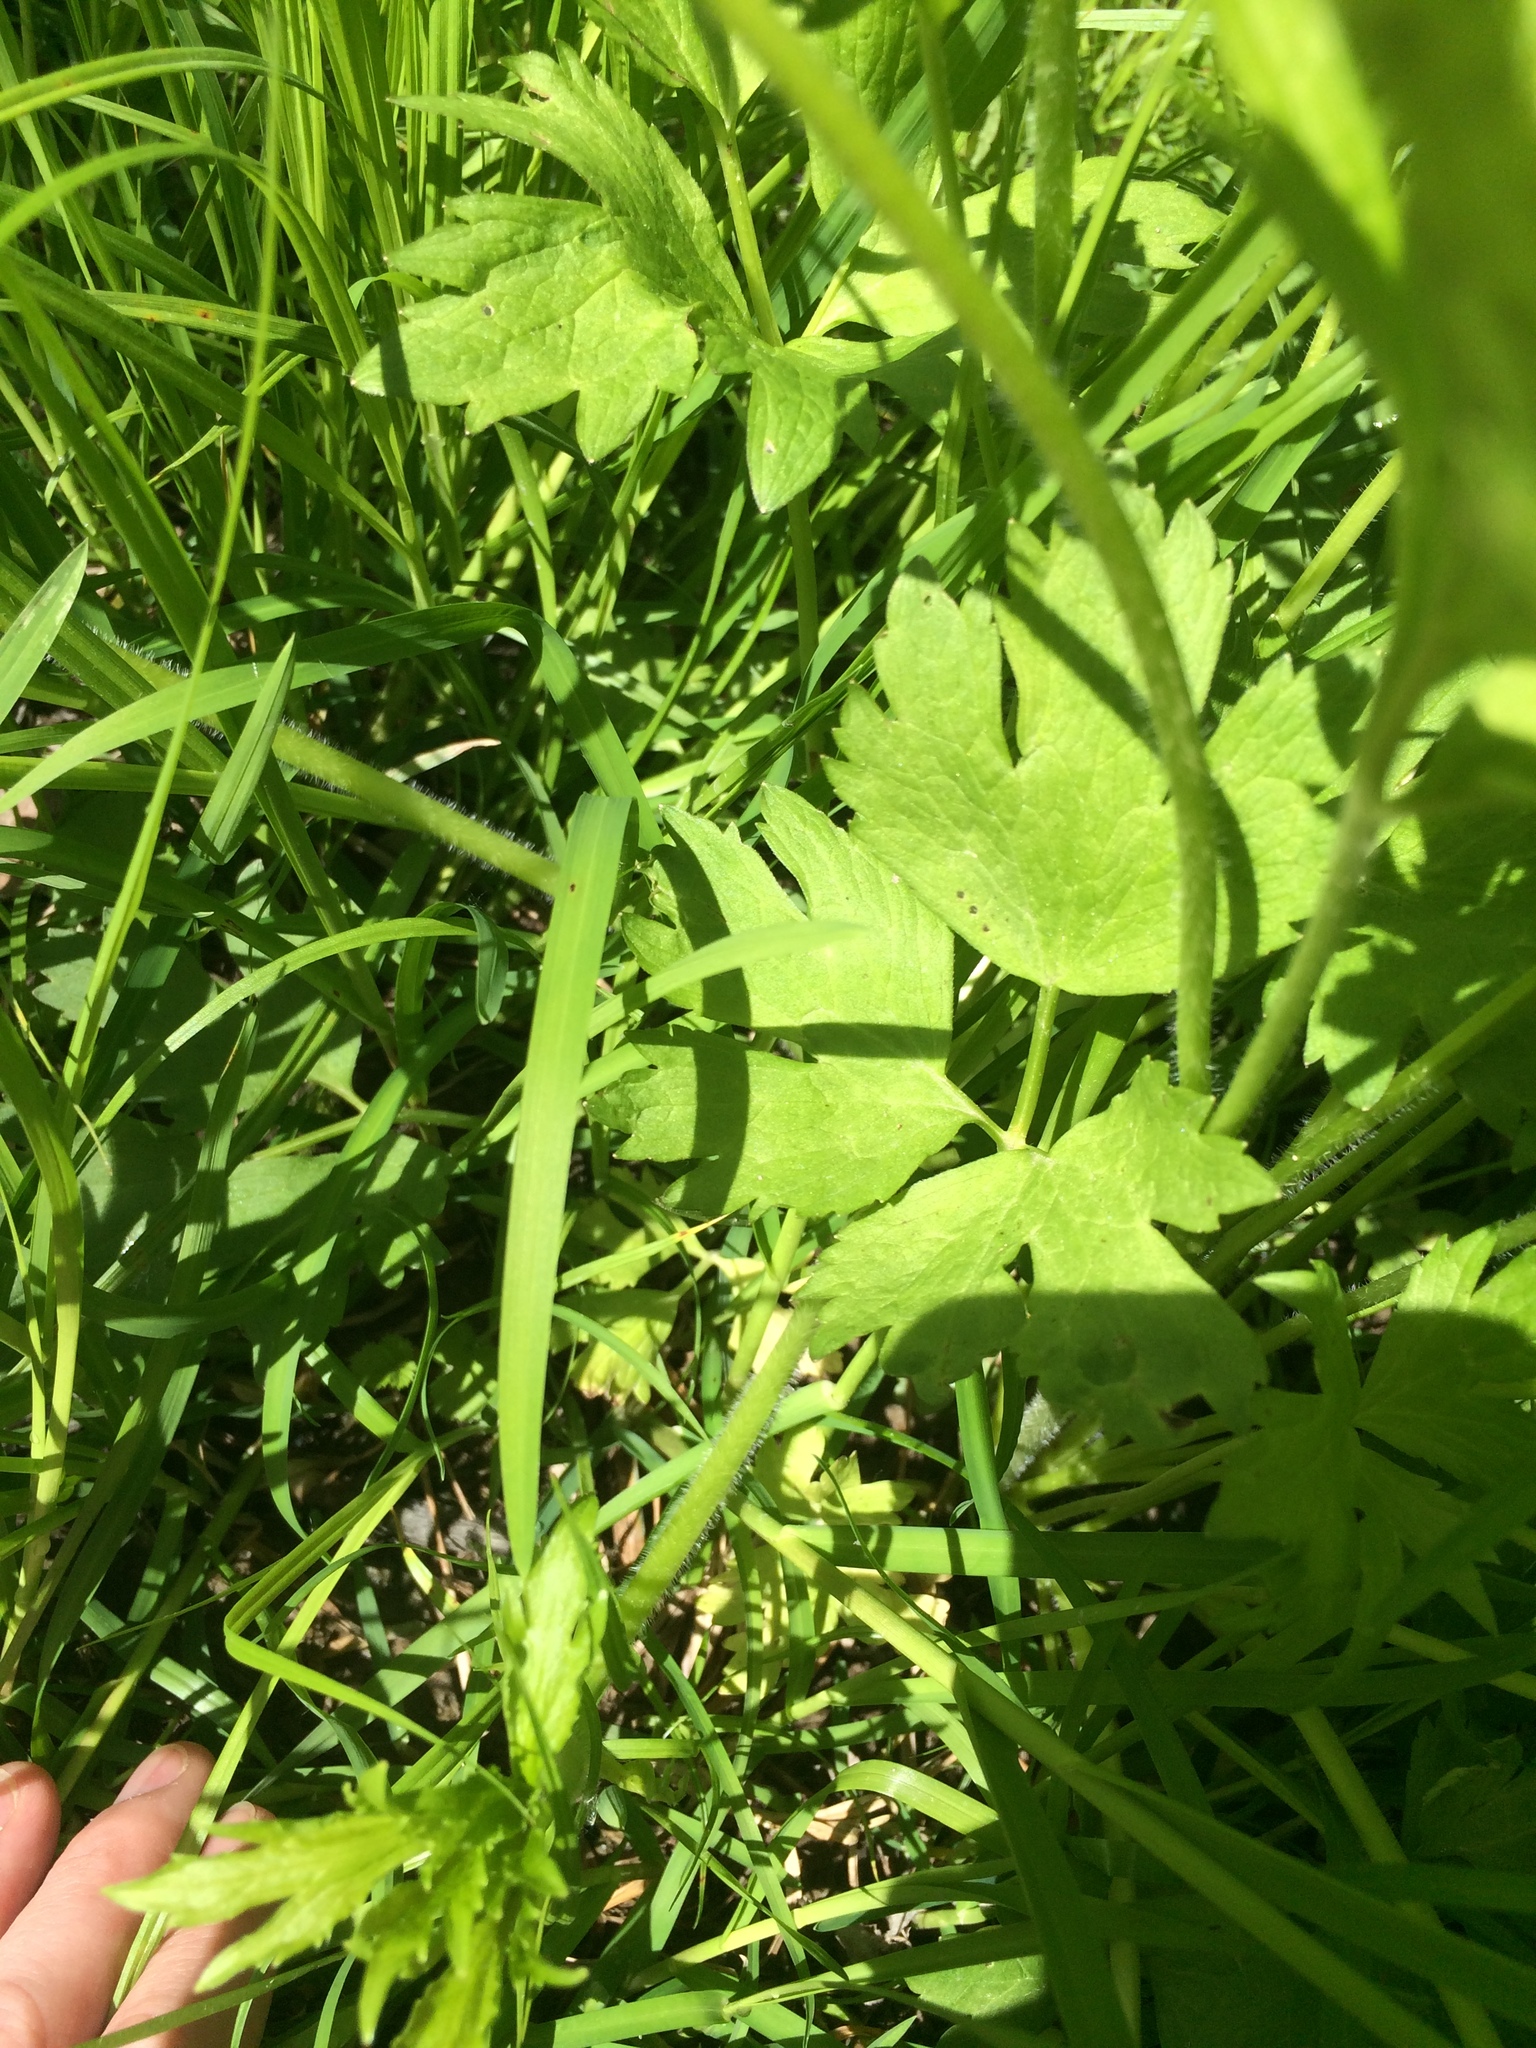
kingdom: Plantae
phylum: Tracheophyta
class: Magnoliopsida
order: Ranunculales
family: Ranunculaceae
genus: Ranunculus
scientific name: Ranunculus hispidus
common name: Bristly buttercup
